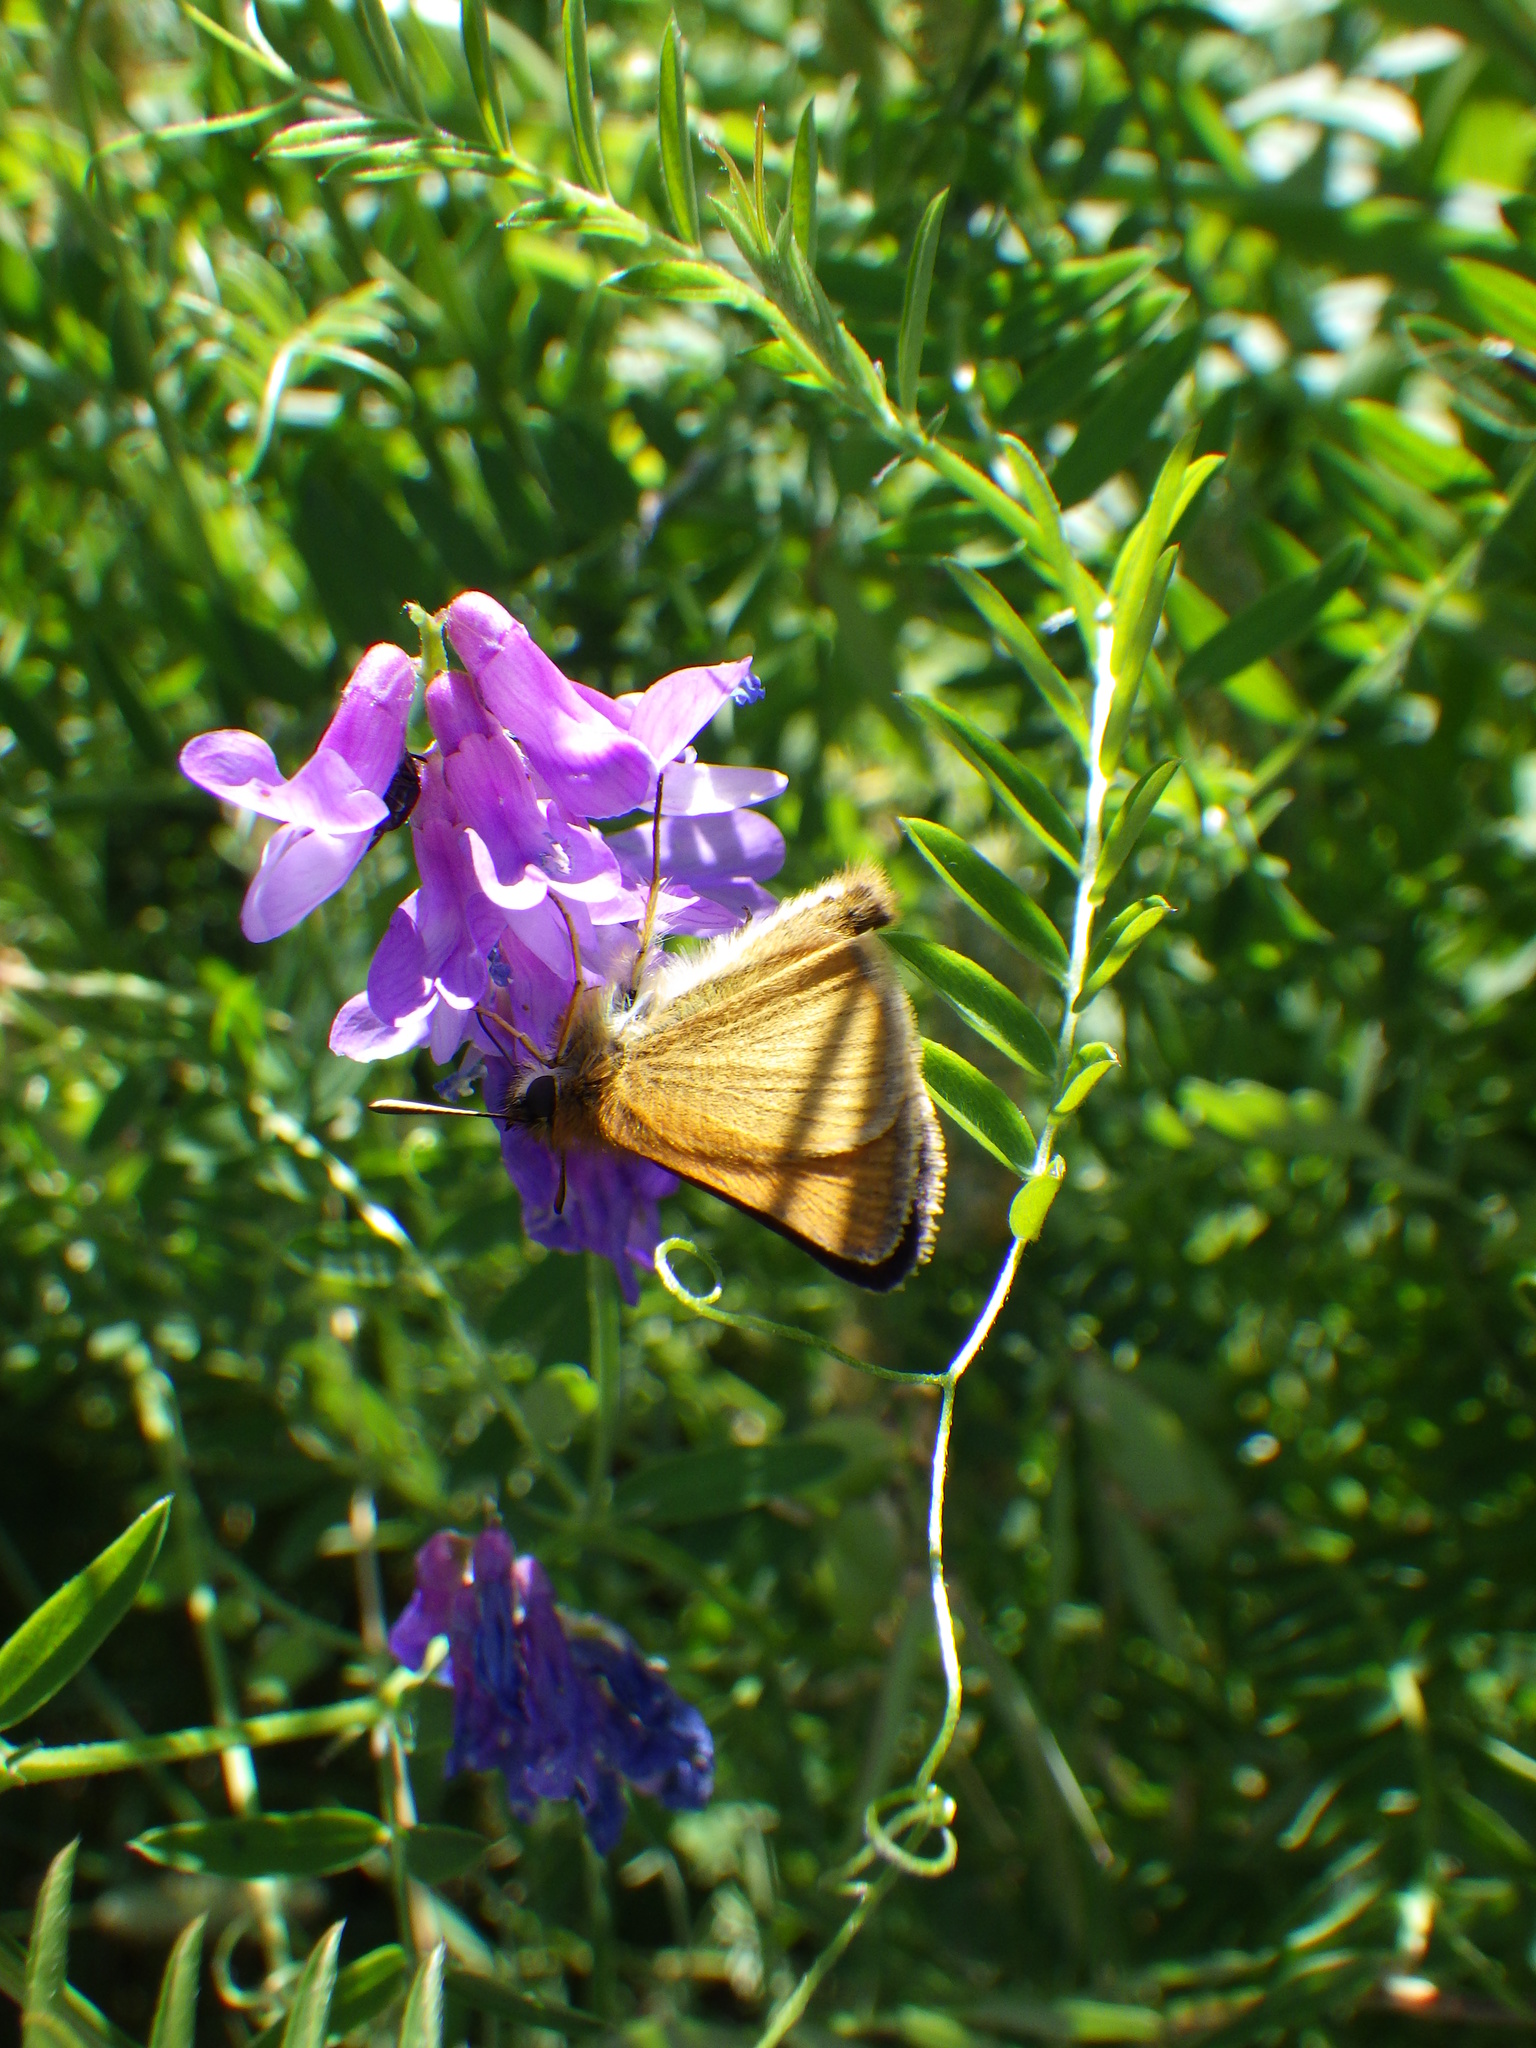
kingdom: Animalia
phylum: Arthropoda
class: Insecta
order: Lepidoptera
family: Hesperiidae
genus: Thymelicus
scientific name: Thymelicus lineola
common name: Essex skipper
